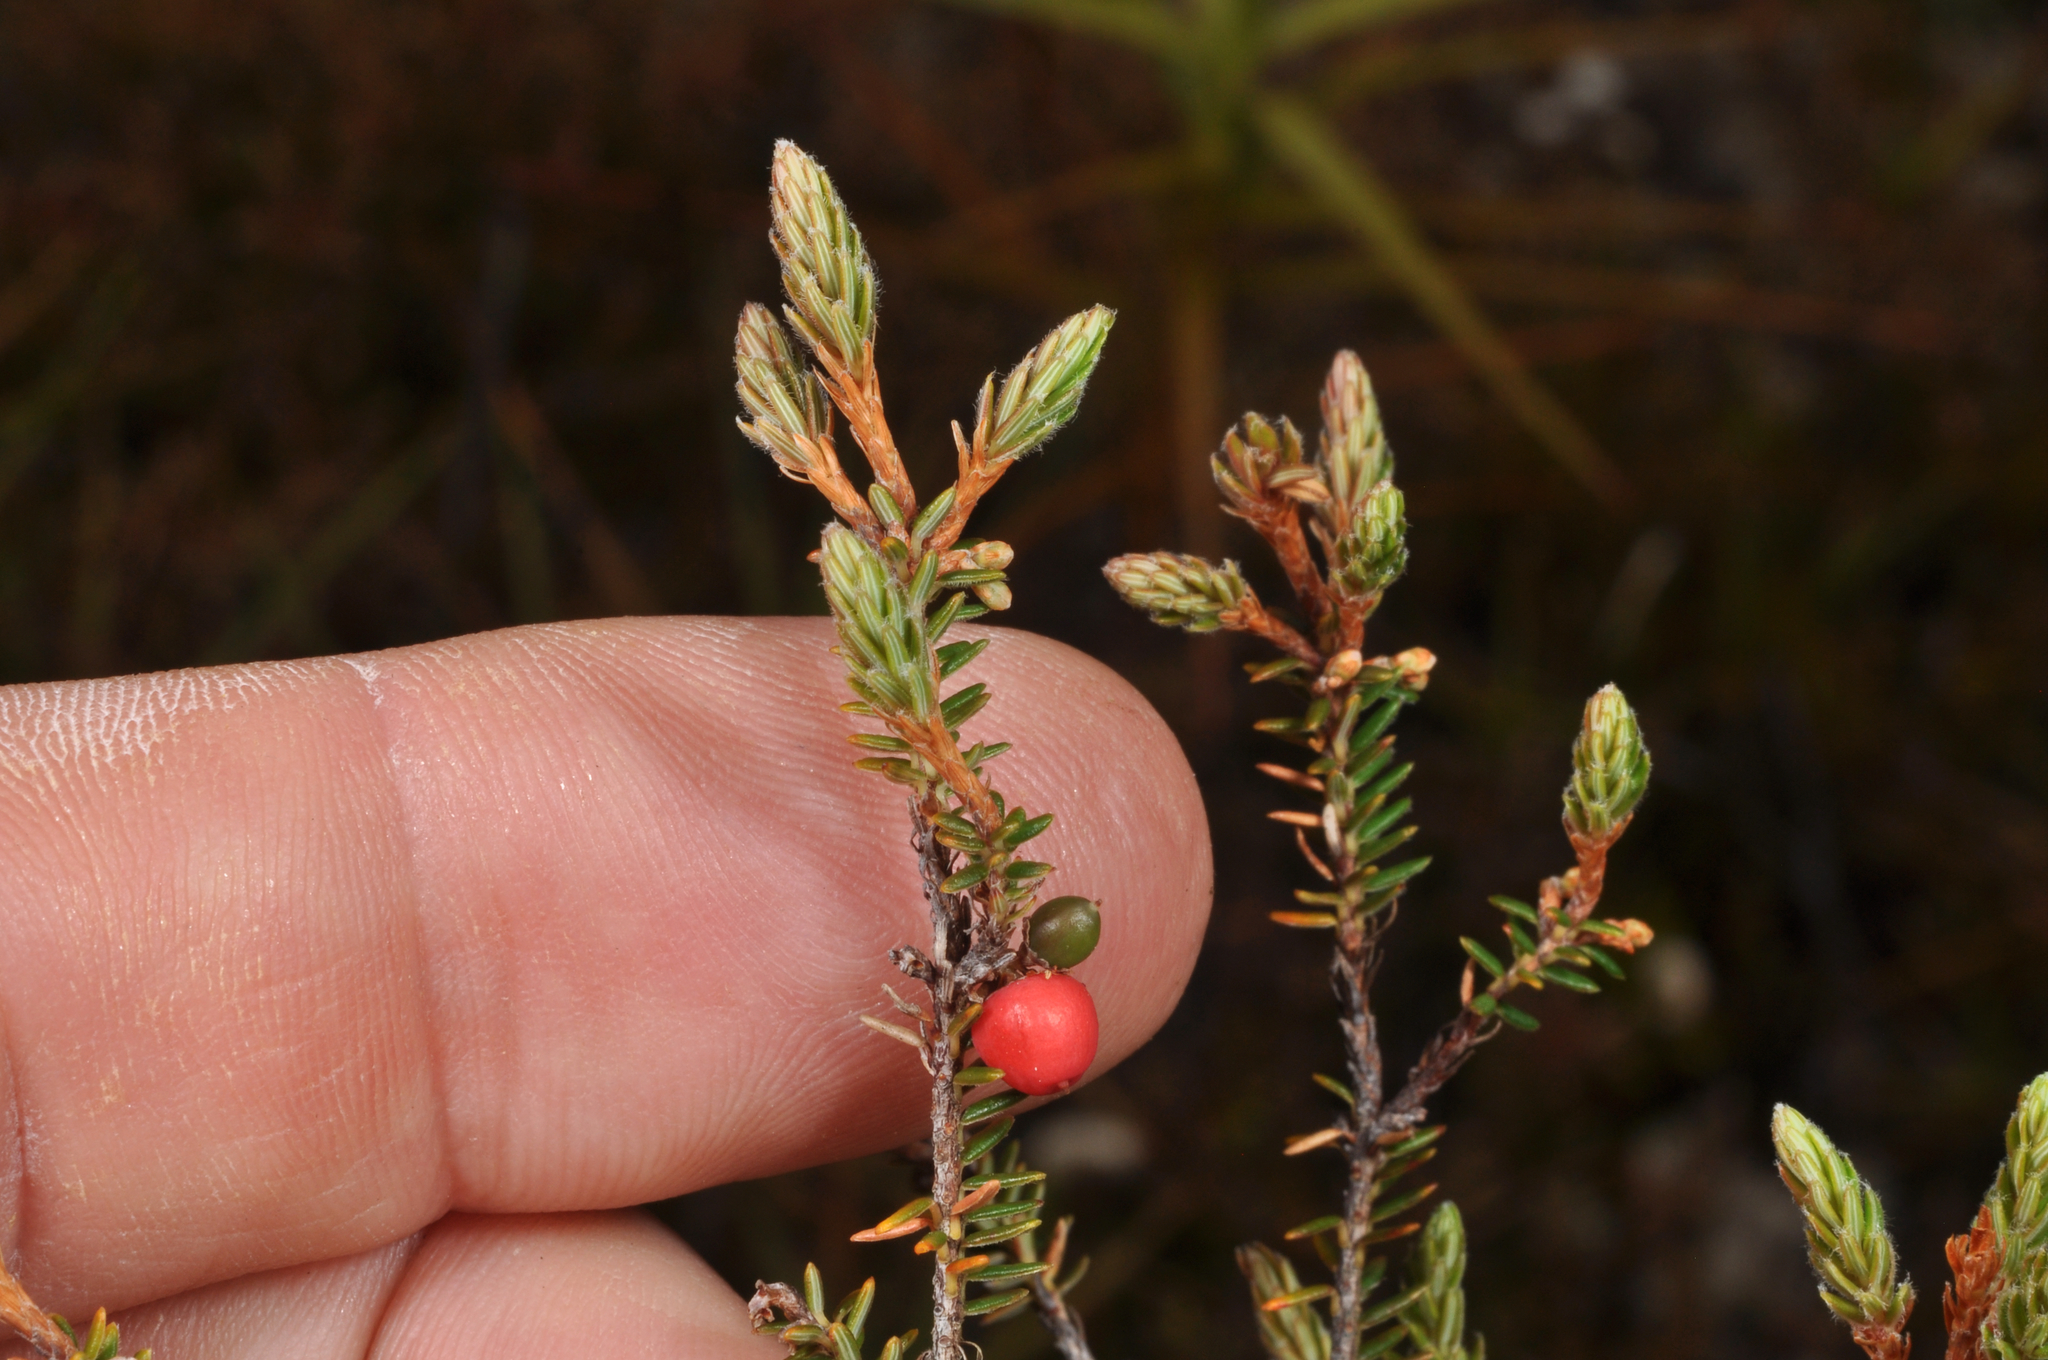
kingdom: Plantae
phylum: Tracheophyta
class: Magnoliopsida
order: Ericales
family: Ericaceae
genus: Androstoma
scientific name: Androstoma empetrifolia
